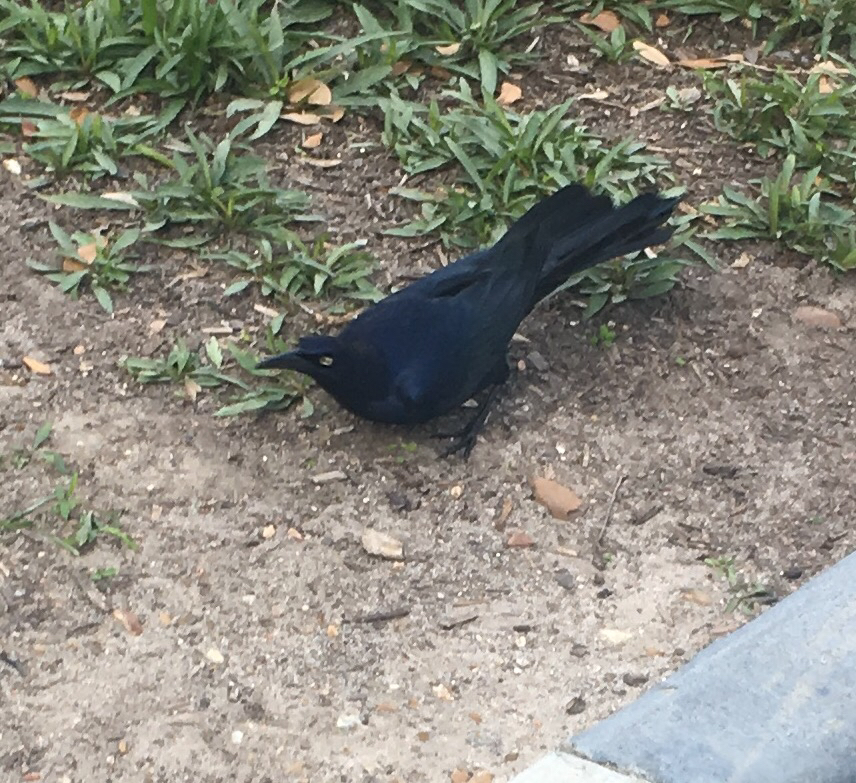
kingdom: Animalia
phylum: Chordata
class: Aves
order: Passeriformes
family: Icteridae
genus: Quiscalus
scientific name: Quiscalus mexicanus
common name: Great-tailed grackle
